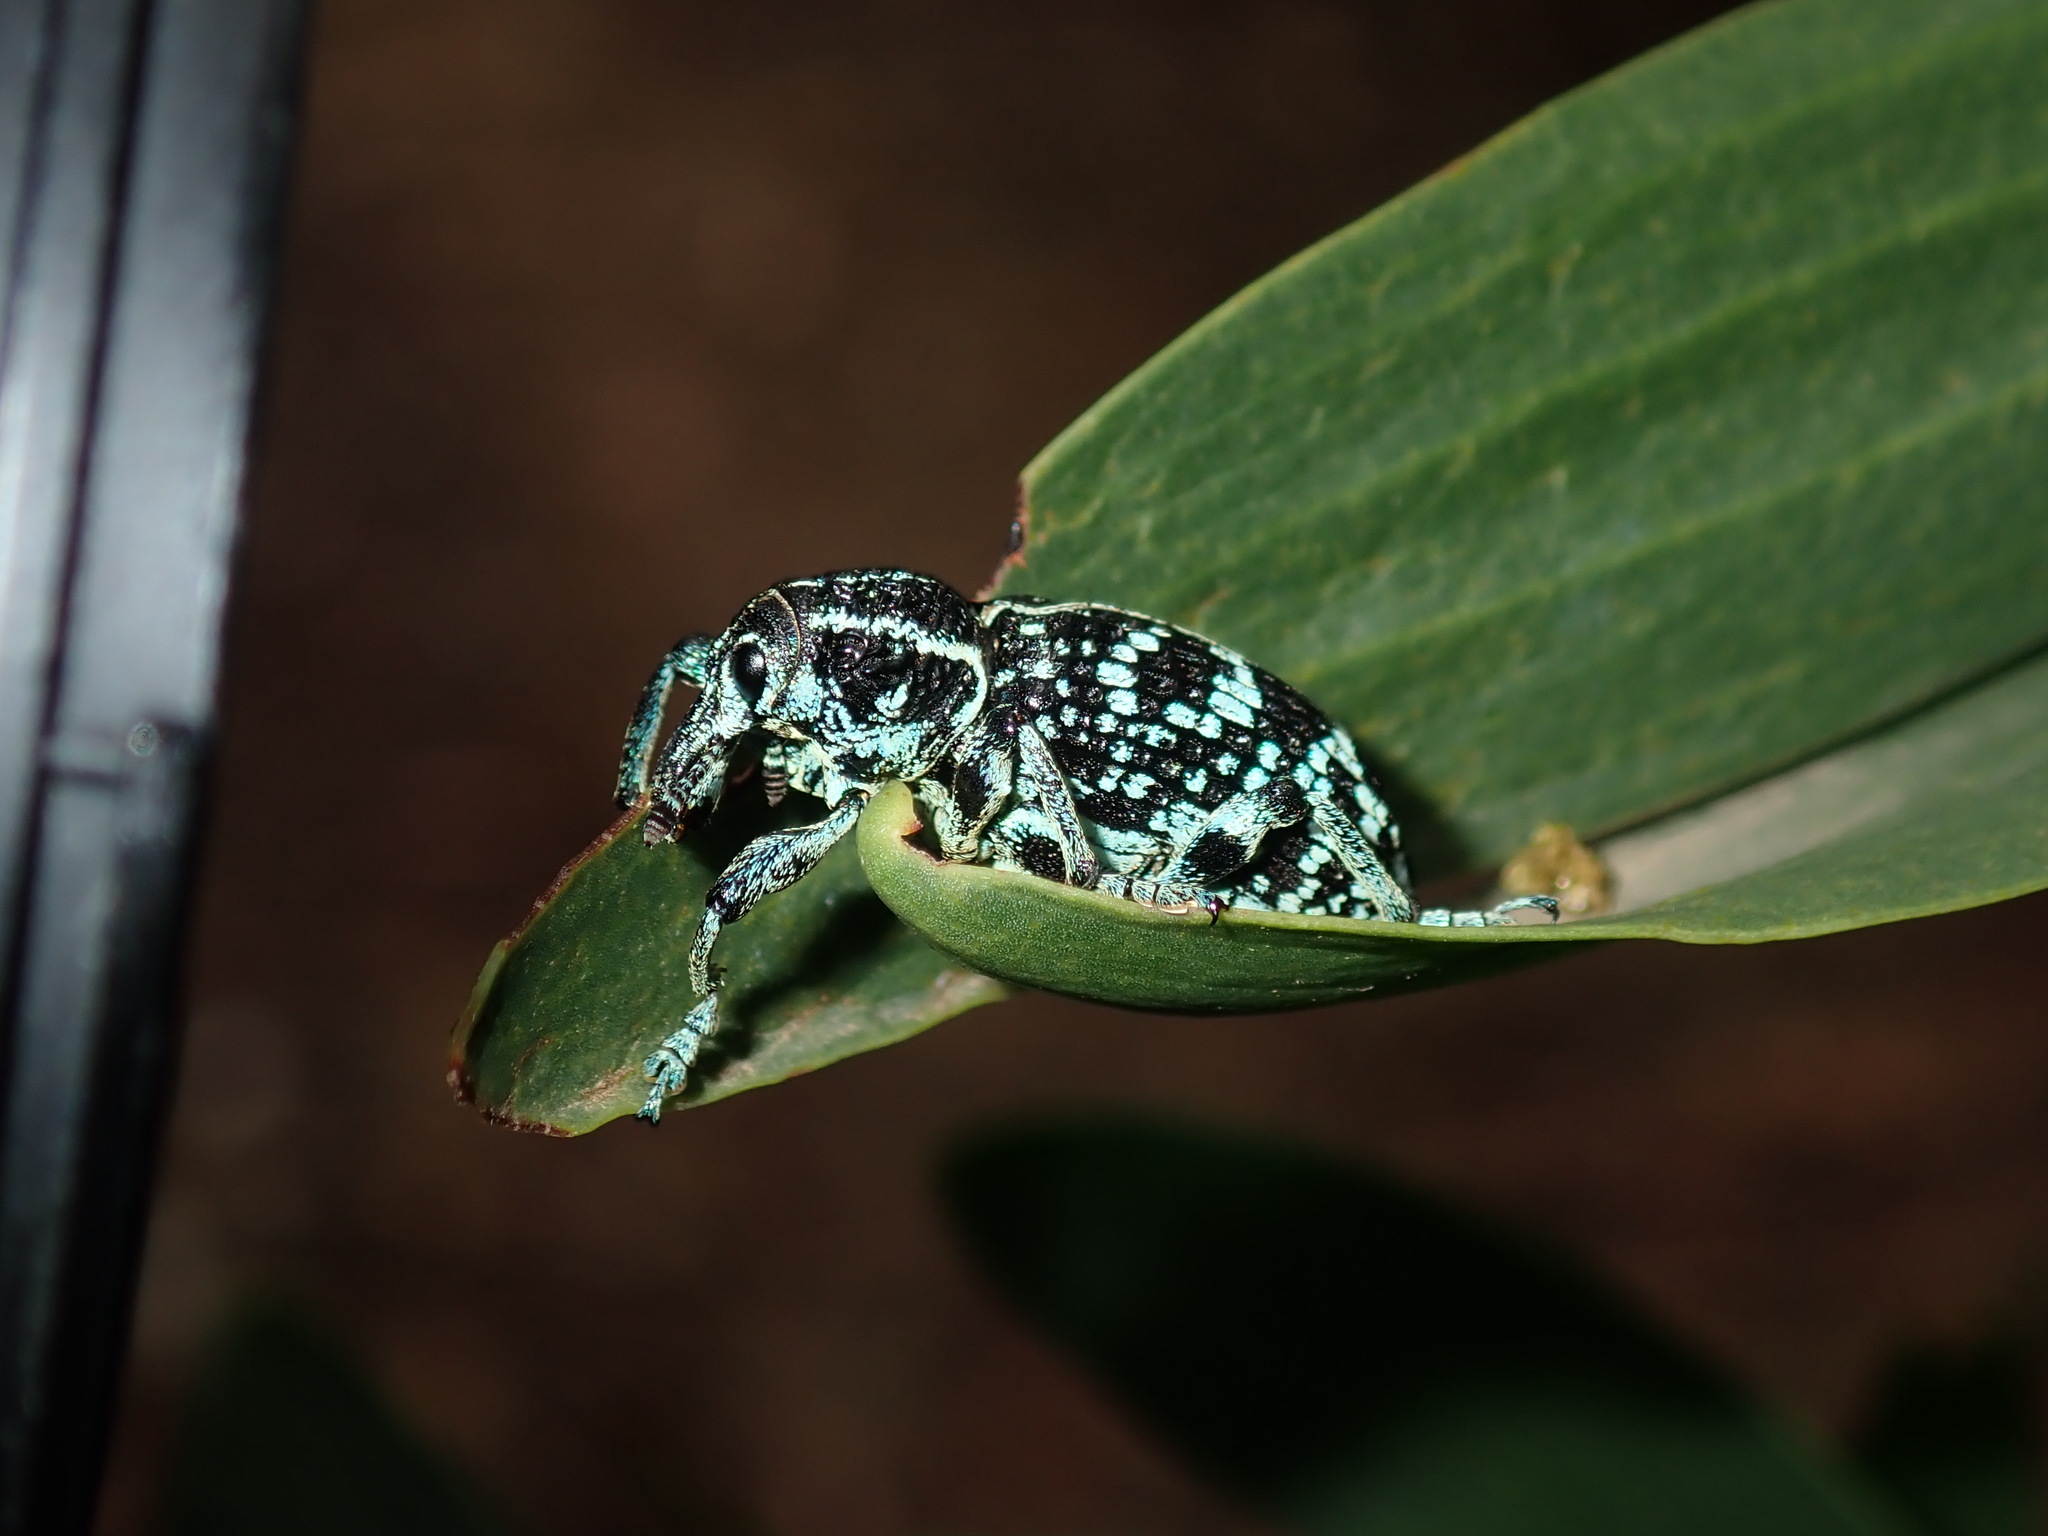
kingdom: Animalia
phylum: Arthropoda
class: Insecta
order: Coleoptera
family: Curculionidae
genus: Chrysolopus
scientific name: Chrysolopus spectabilis
